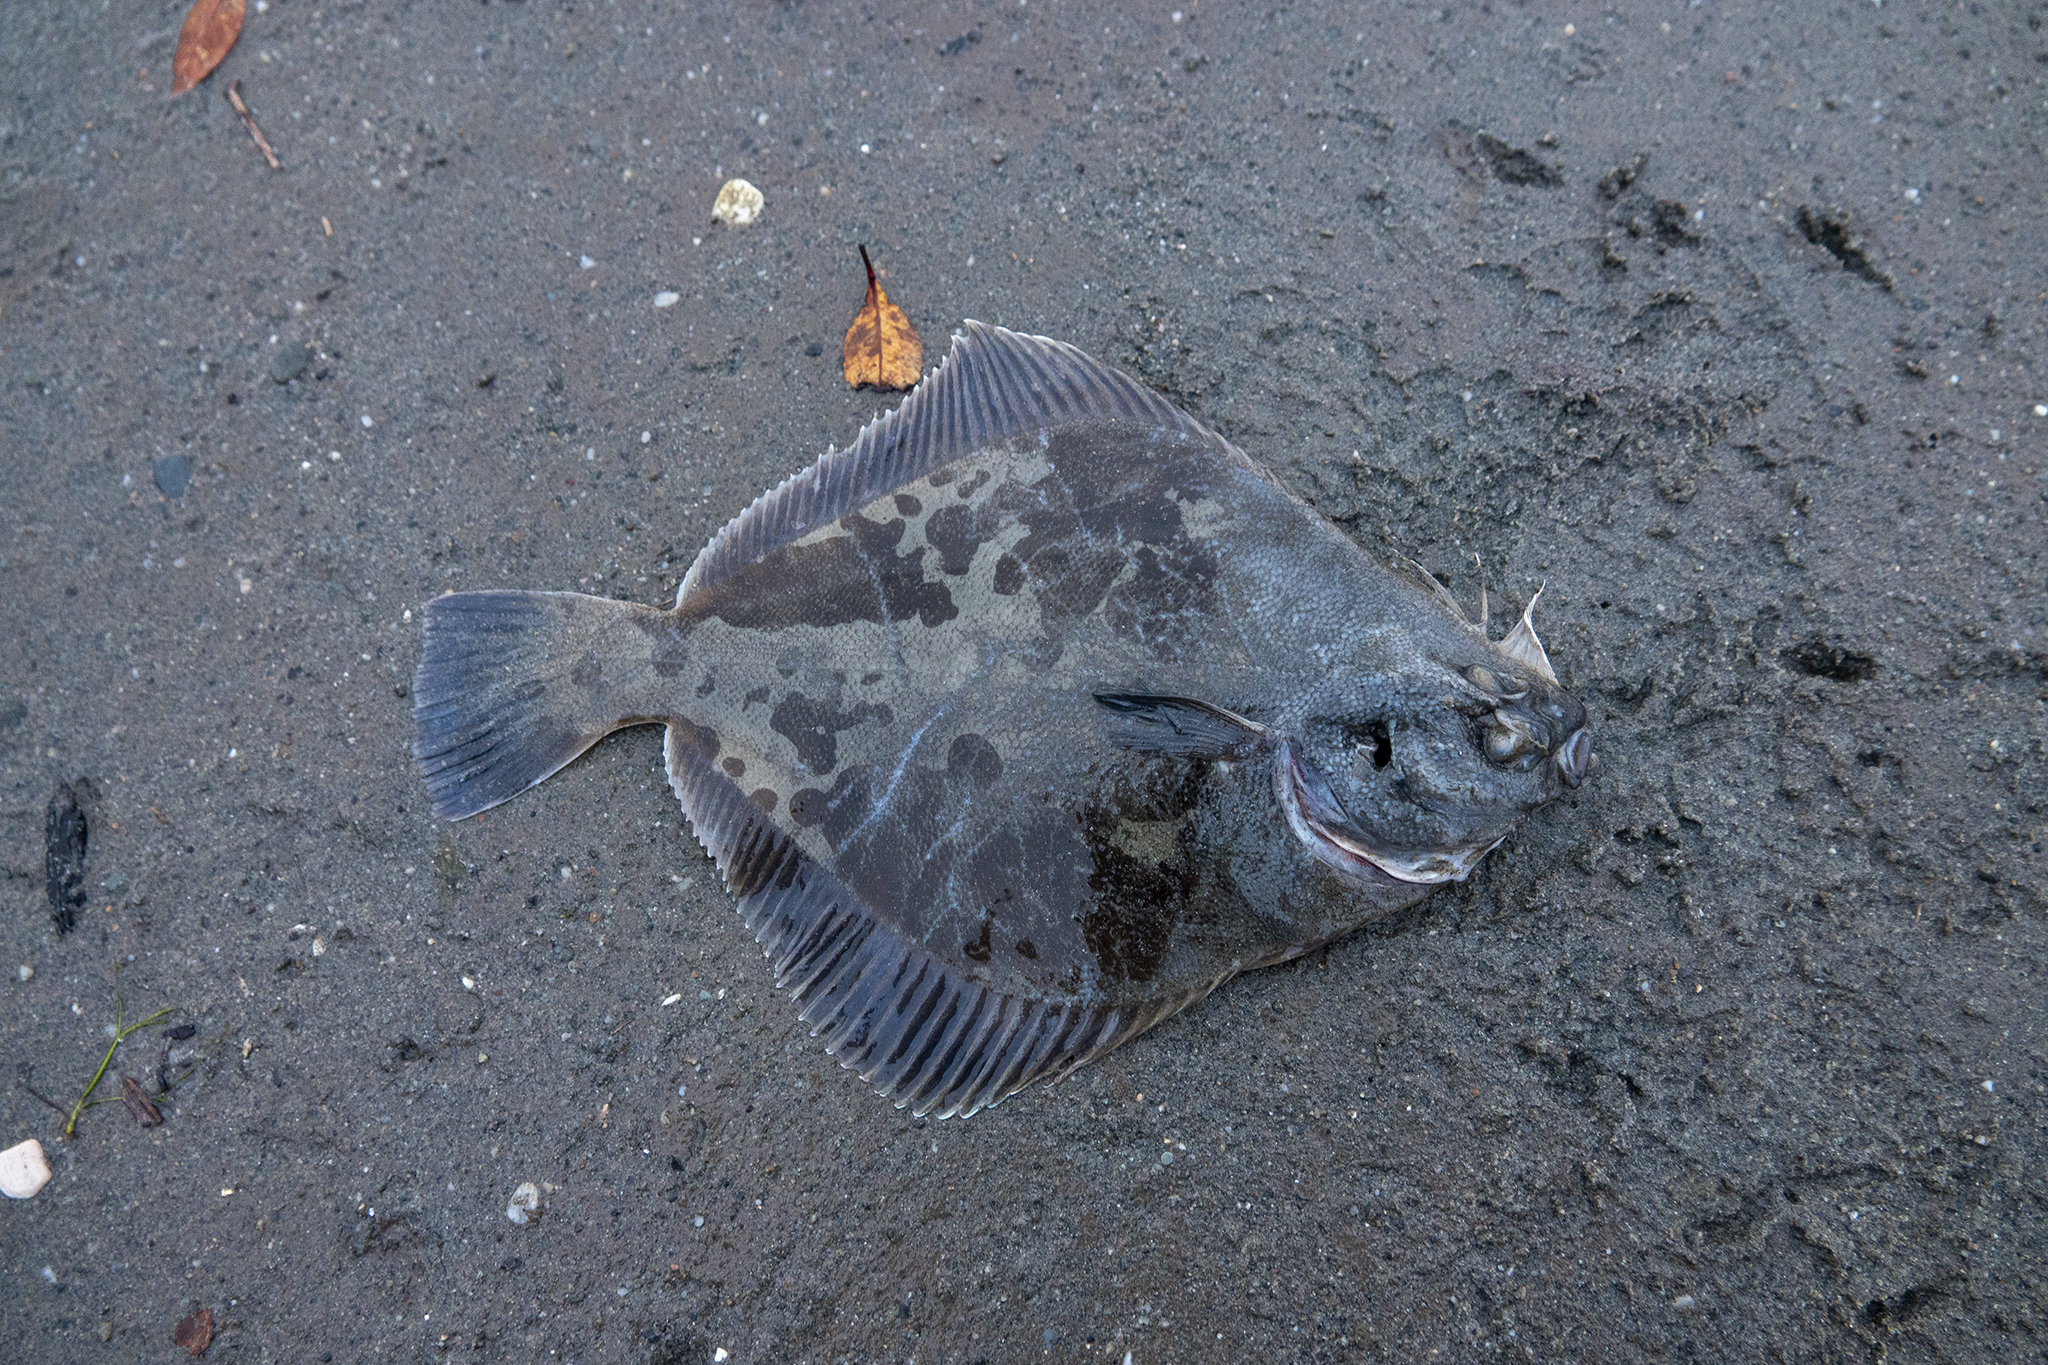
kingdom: Animalia
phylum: Chordata
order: Pleuronectiformes
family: Pleuronectidae
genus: Rhombosolea
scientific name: Rhombosolea plebeia
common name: Dab
